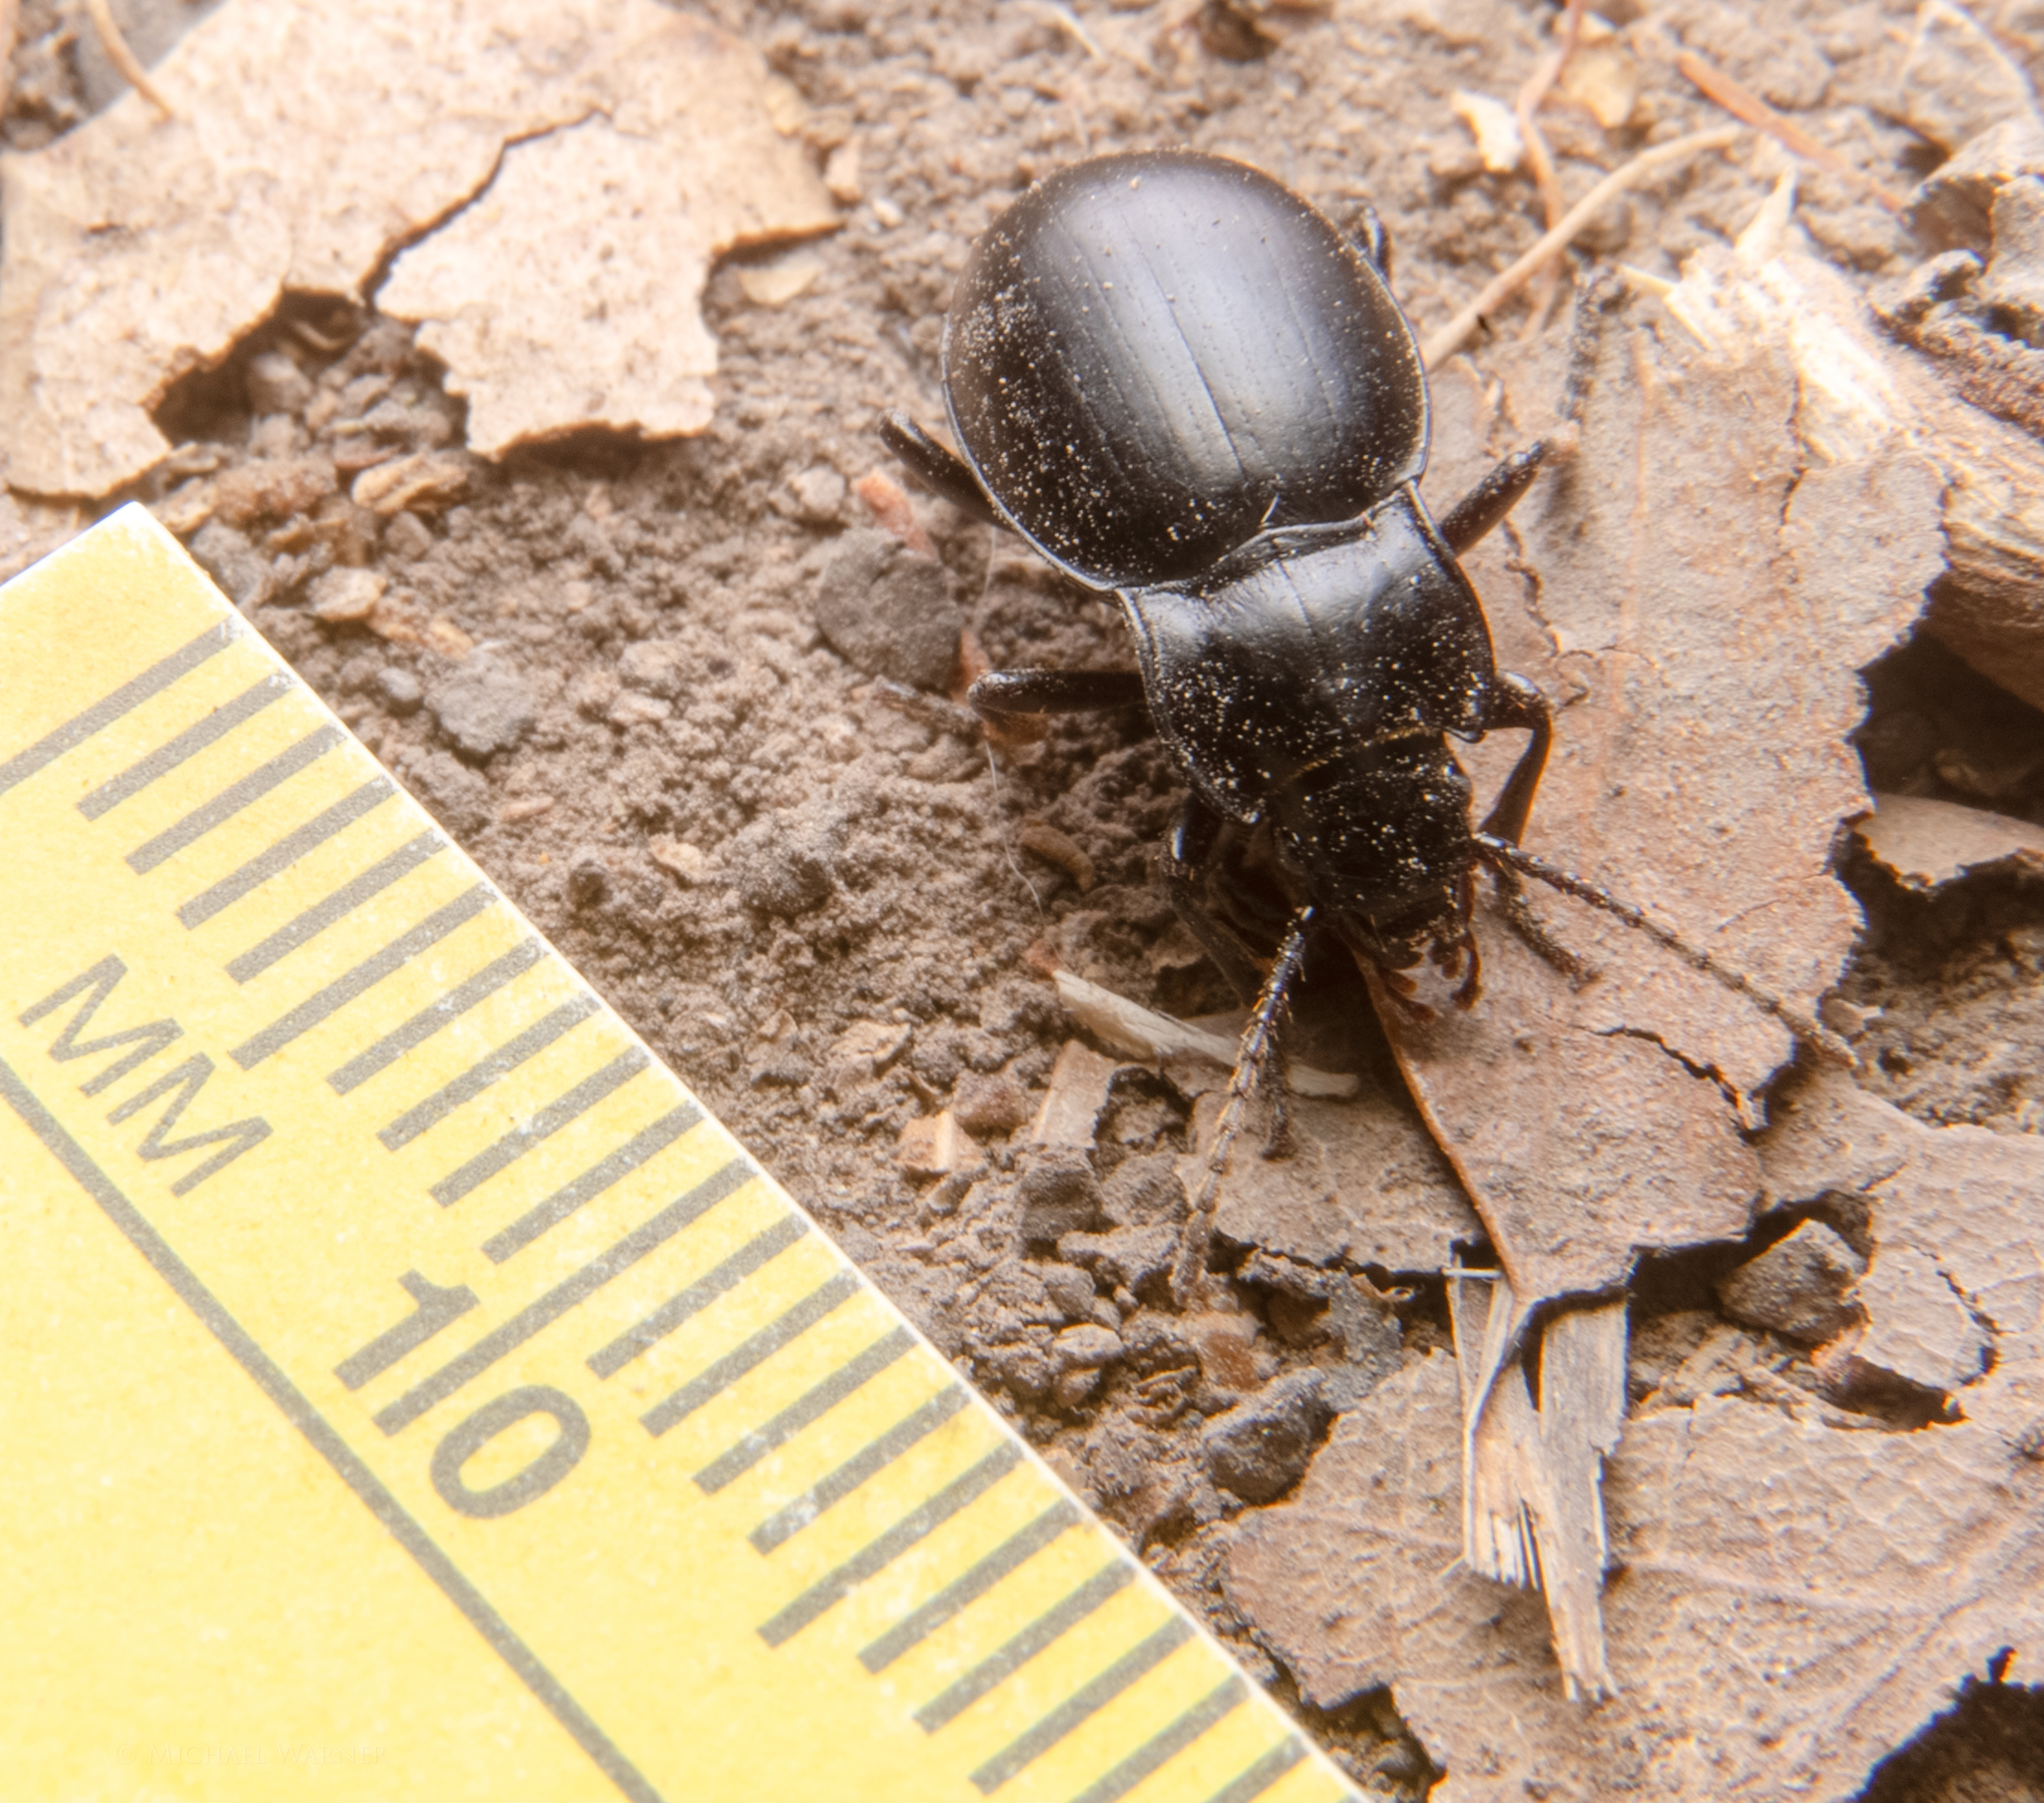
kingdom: Animalia
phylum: Arthropoda
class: Insecta
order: Coleoptera
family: Carabidae
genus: Metrius
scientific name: Metrius contractus
